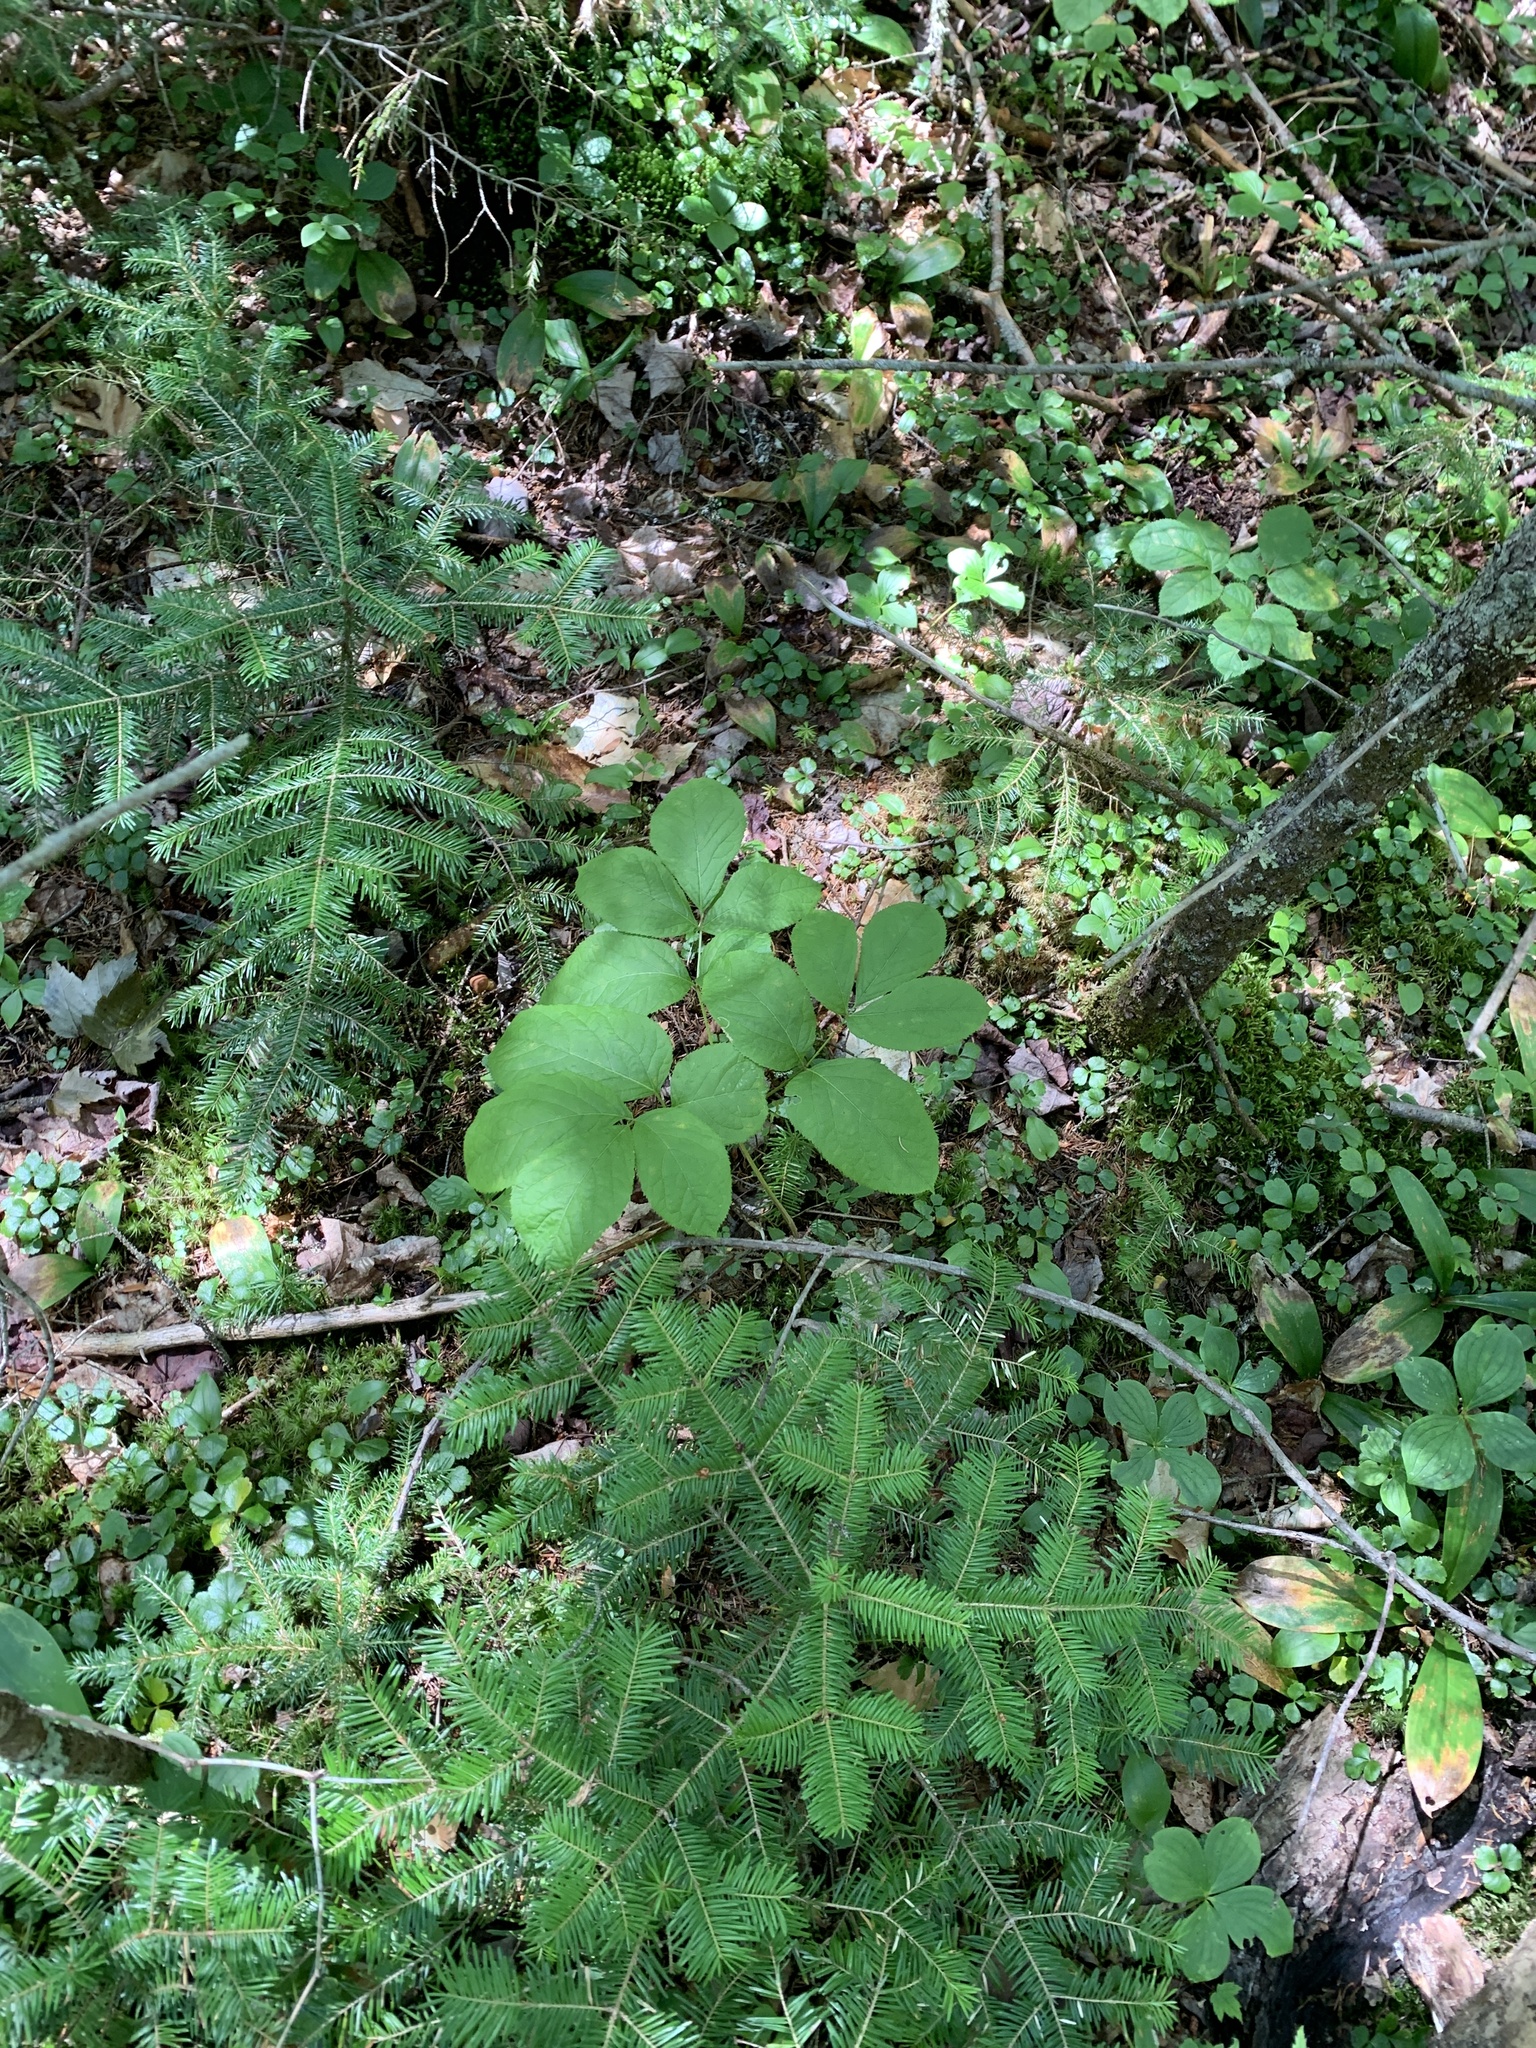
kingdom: Plantae
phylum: Tracheophyta
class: Magnoliopsida
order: Apiales
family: Araliaceae
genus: Aralia
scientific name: Aralia nudicaulis
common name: Wild sarsaparilla
